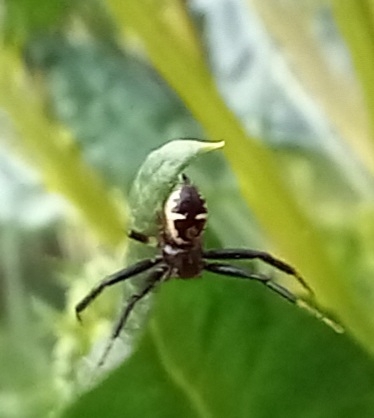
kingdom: Animalia
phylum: Arthropoda
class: Arachnida
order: Araneae
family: Thomisidae
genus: Synema
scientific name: Synema globosum
